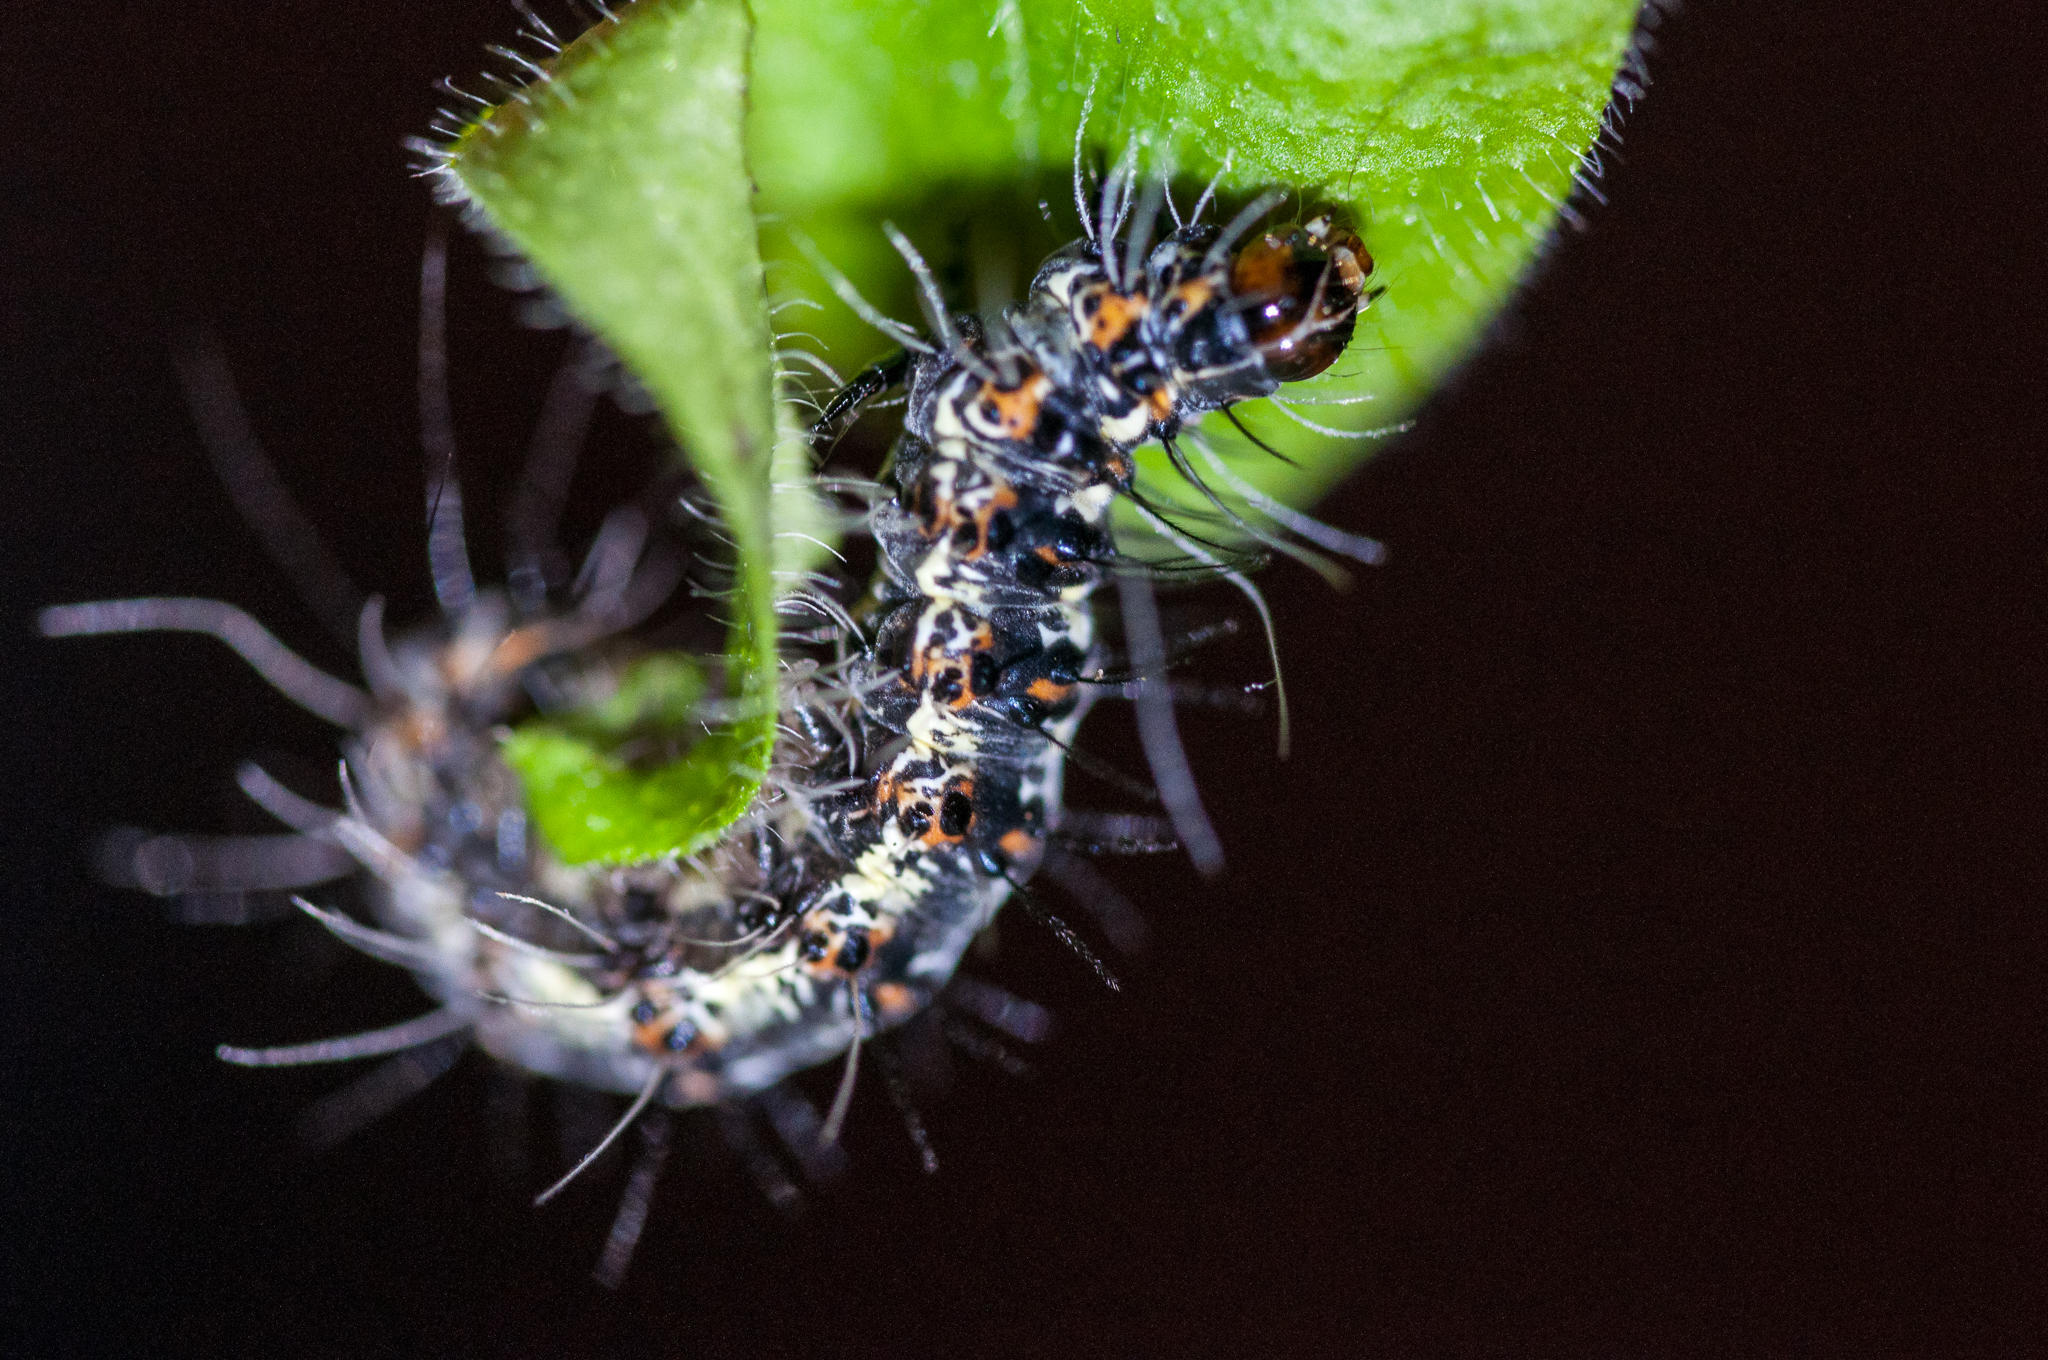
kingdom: Animalia
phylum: Arthropoda
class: Insecta
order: Lepidoptera
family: Erebidae
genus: Utetheisa
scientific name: Utetheisa pulchella
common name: Crimson speckled
